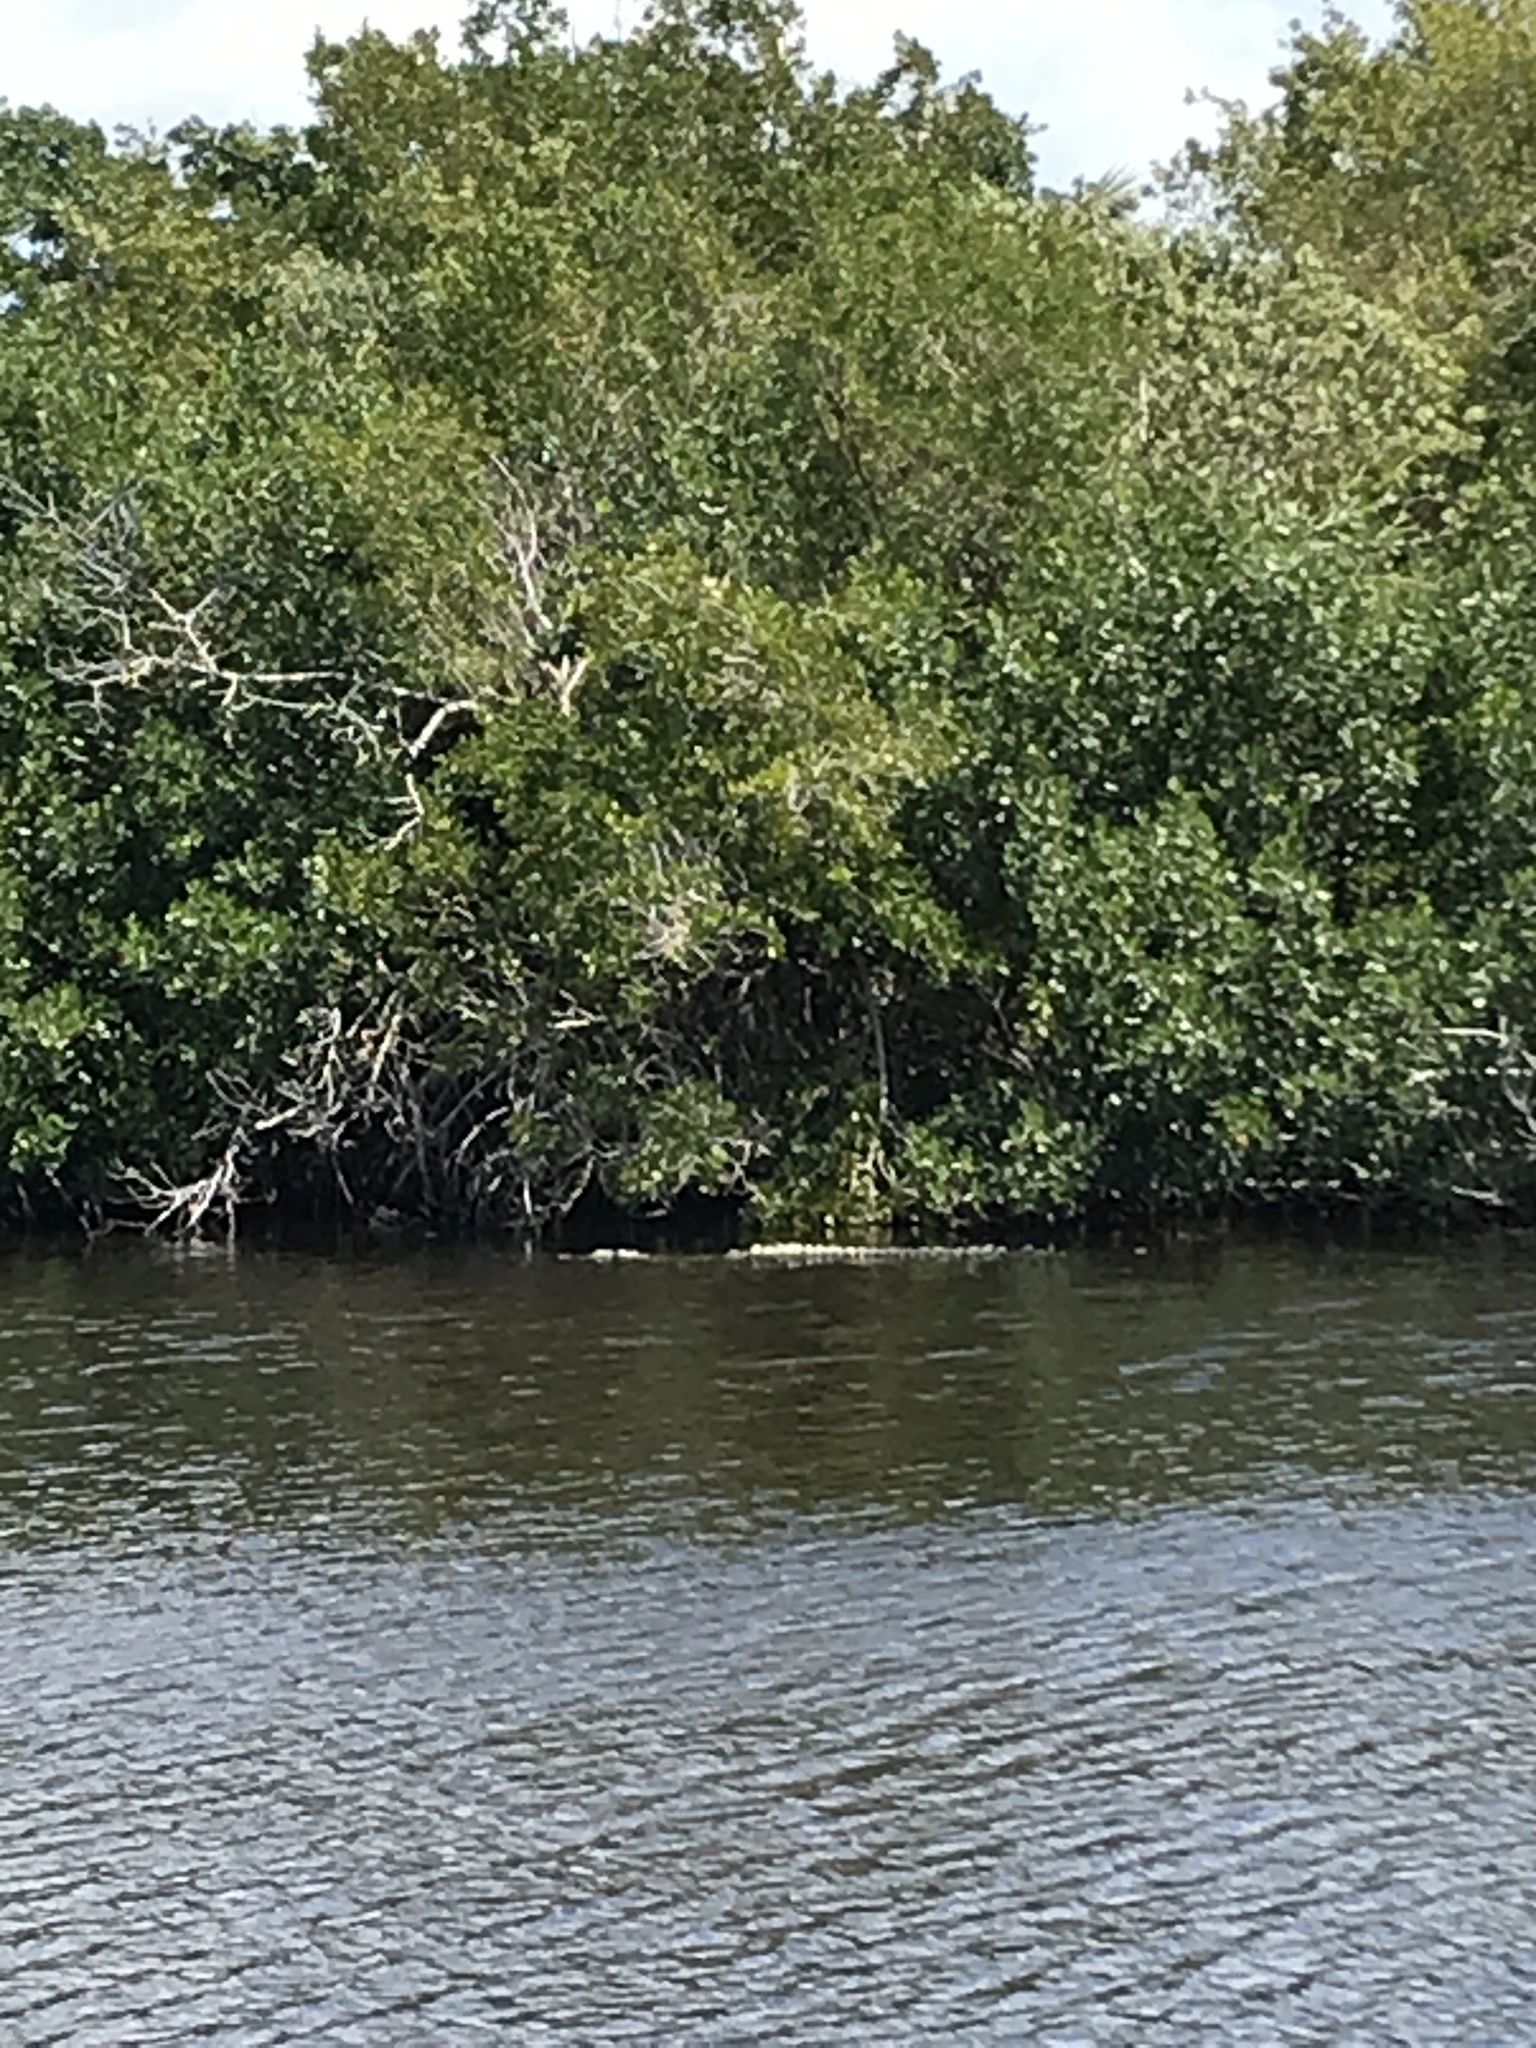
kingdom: Animalia
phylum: Chordata
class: Crocodylia
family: Crocodylidae
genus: Crocodylus
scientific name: Crocodylus acutus
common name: American crocodile
